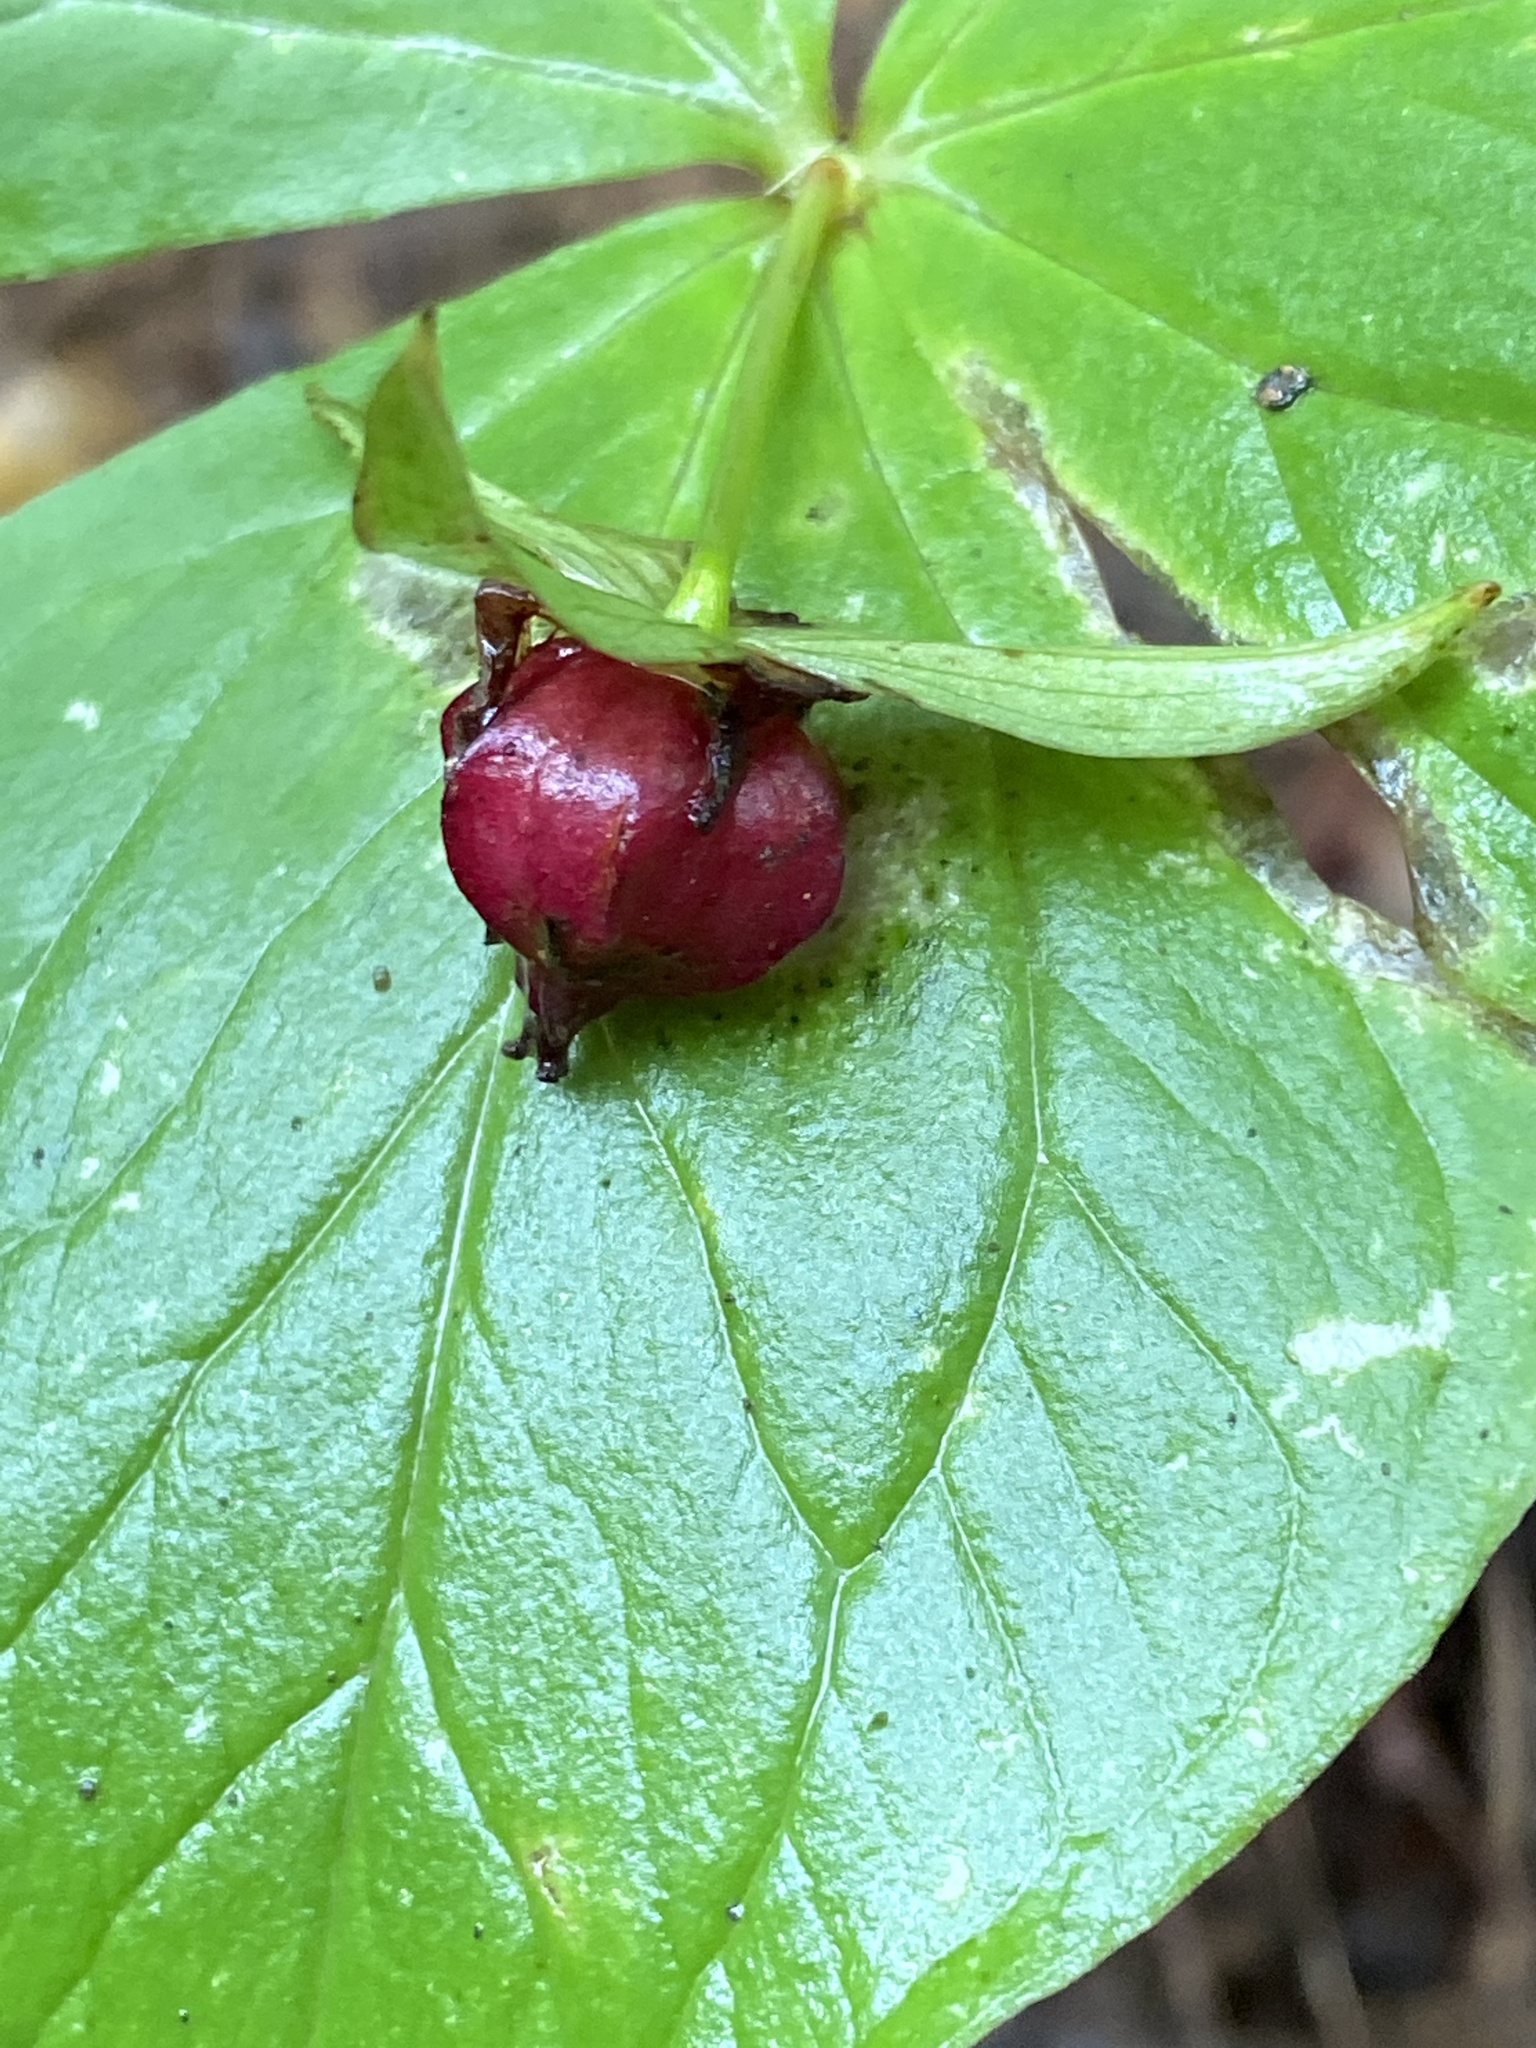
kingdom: Plantae
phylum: Tracheophyta
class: Liliopsida
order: Liliales
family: Melanthiaceae
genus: Trillium
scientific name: Trillium erectum
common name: Purple trillium
